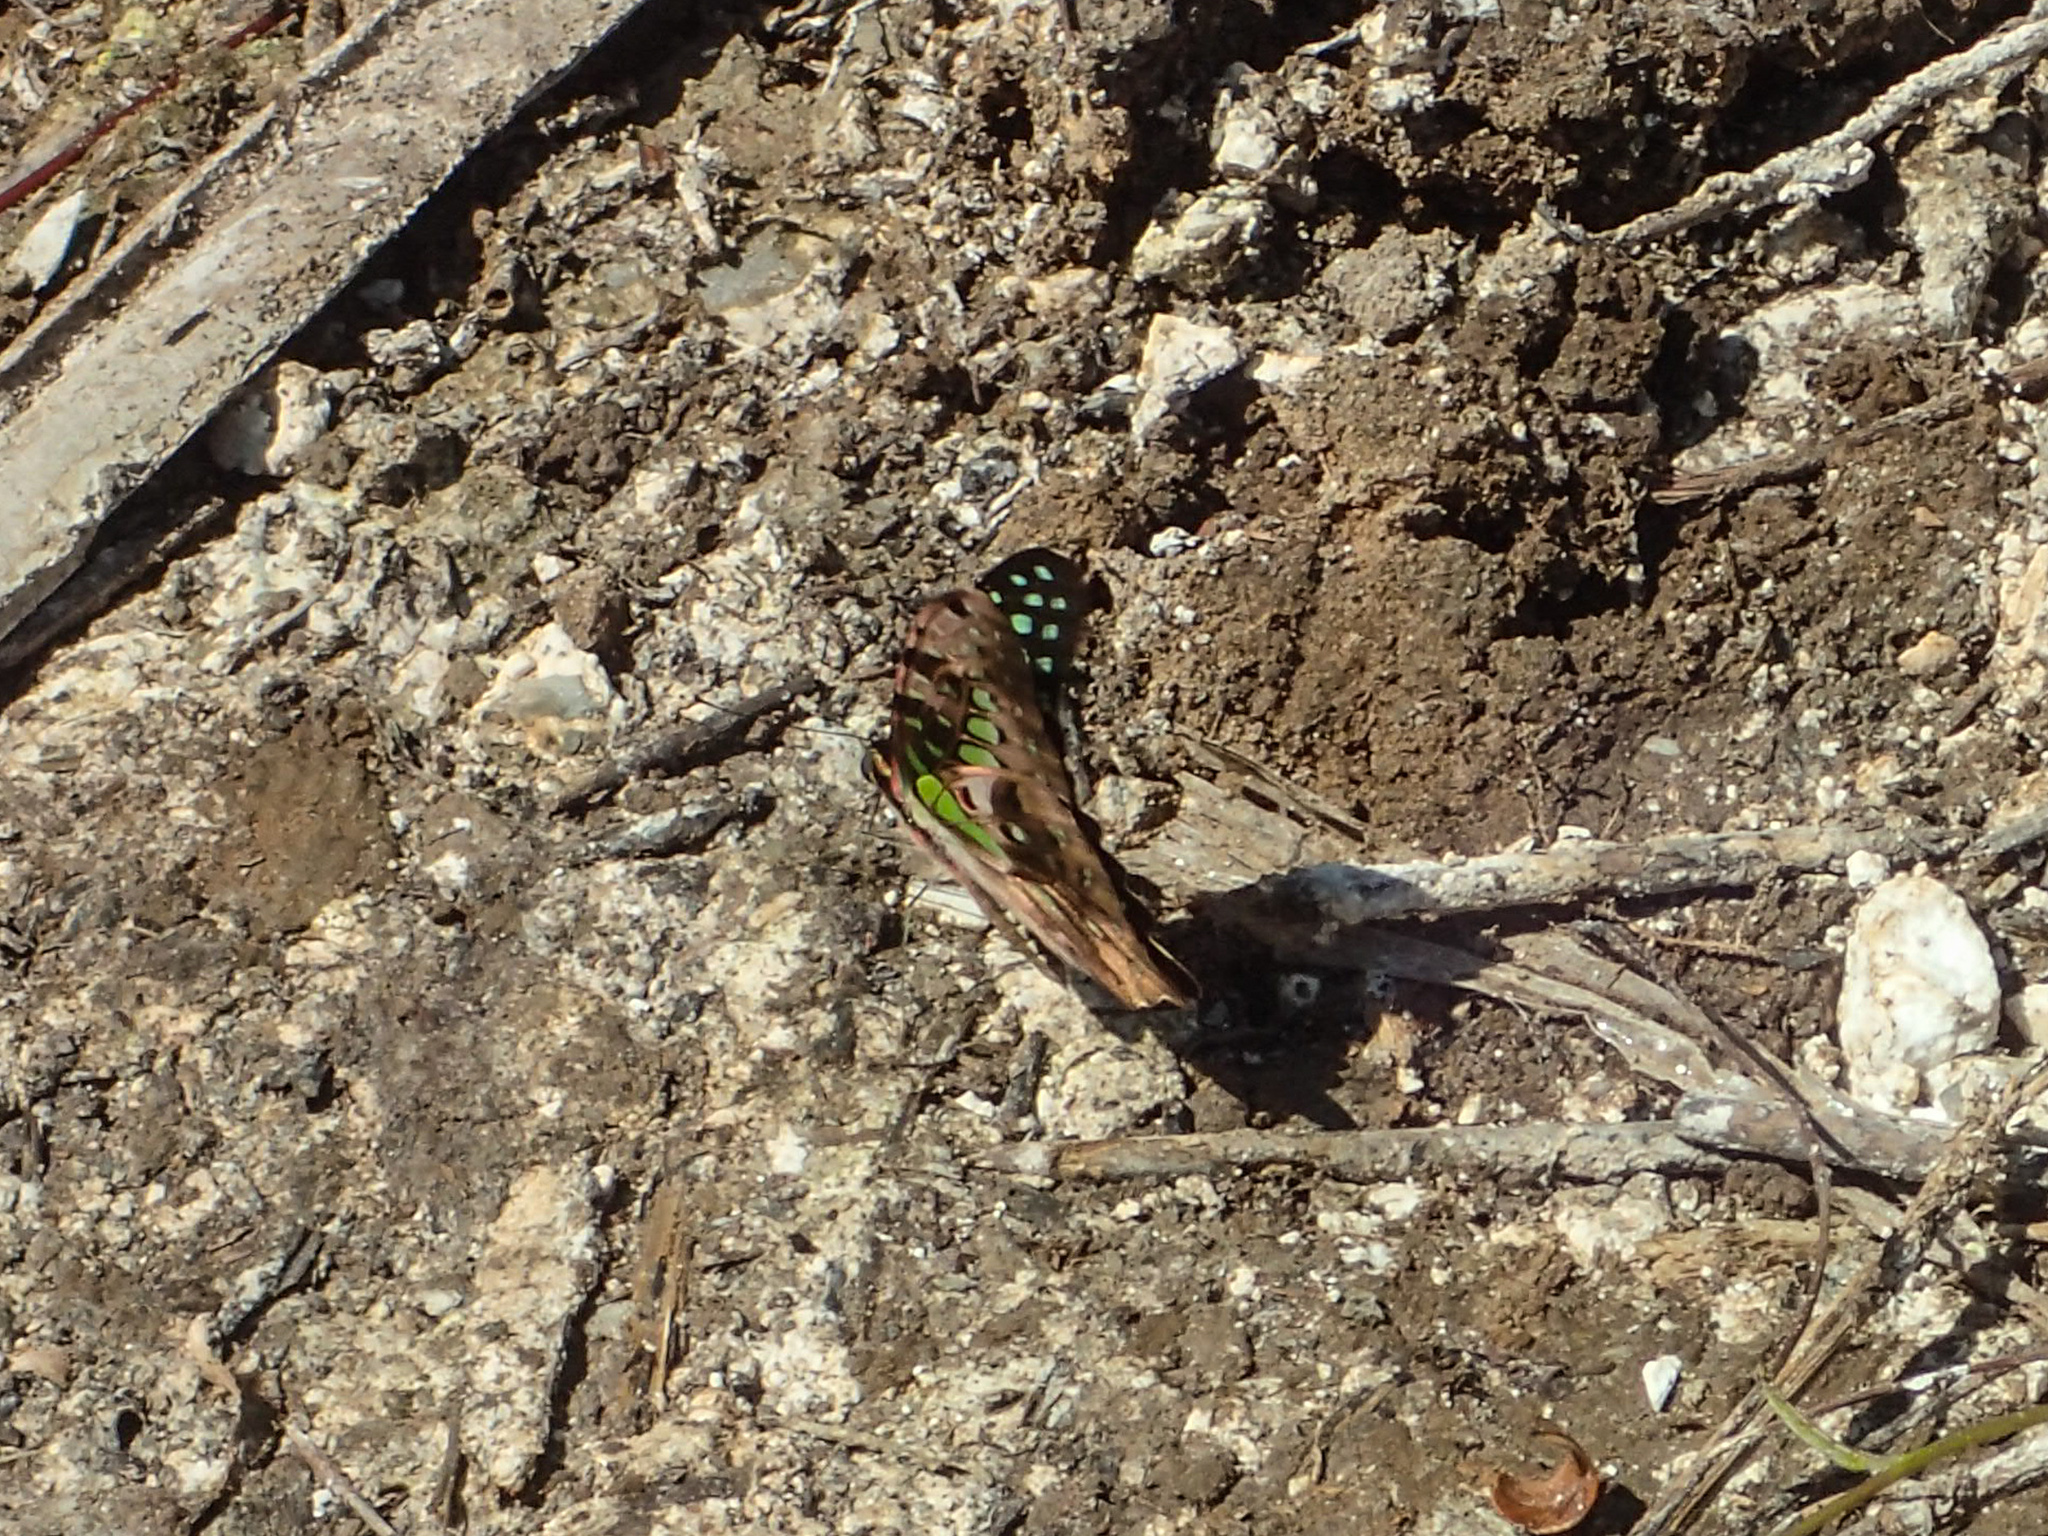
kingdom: Animalia
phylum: Arthropoda
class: Insecta
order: Lepidoptera
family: Papilionidae
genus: Graphium
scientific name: Graphium agamemnon
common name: Tailed jay
